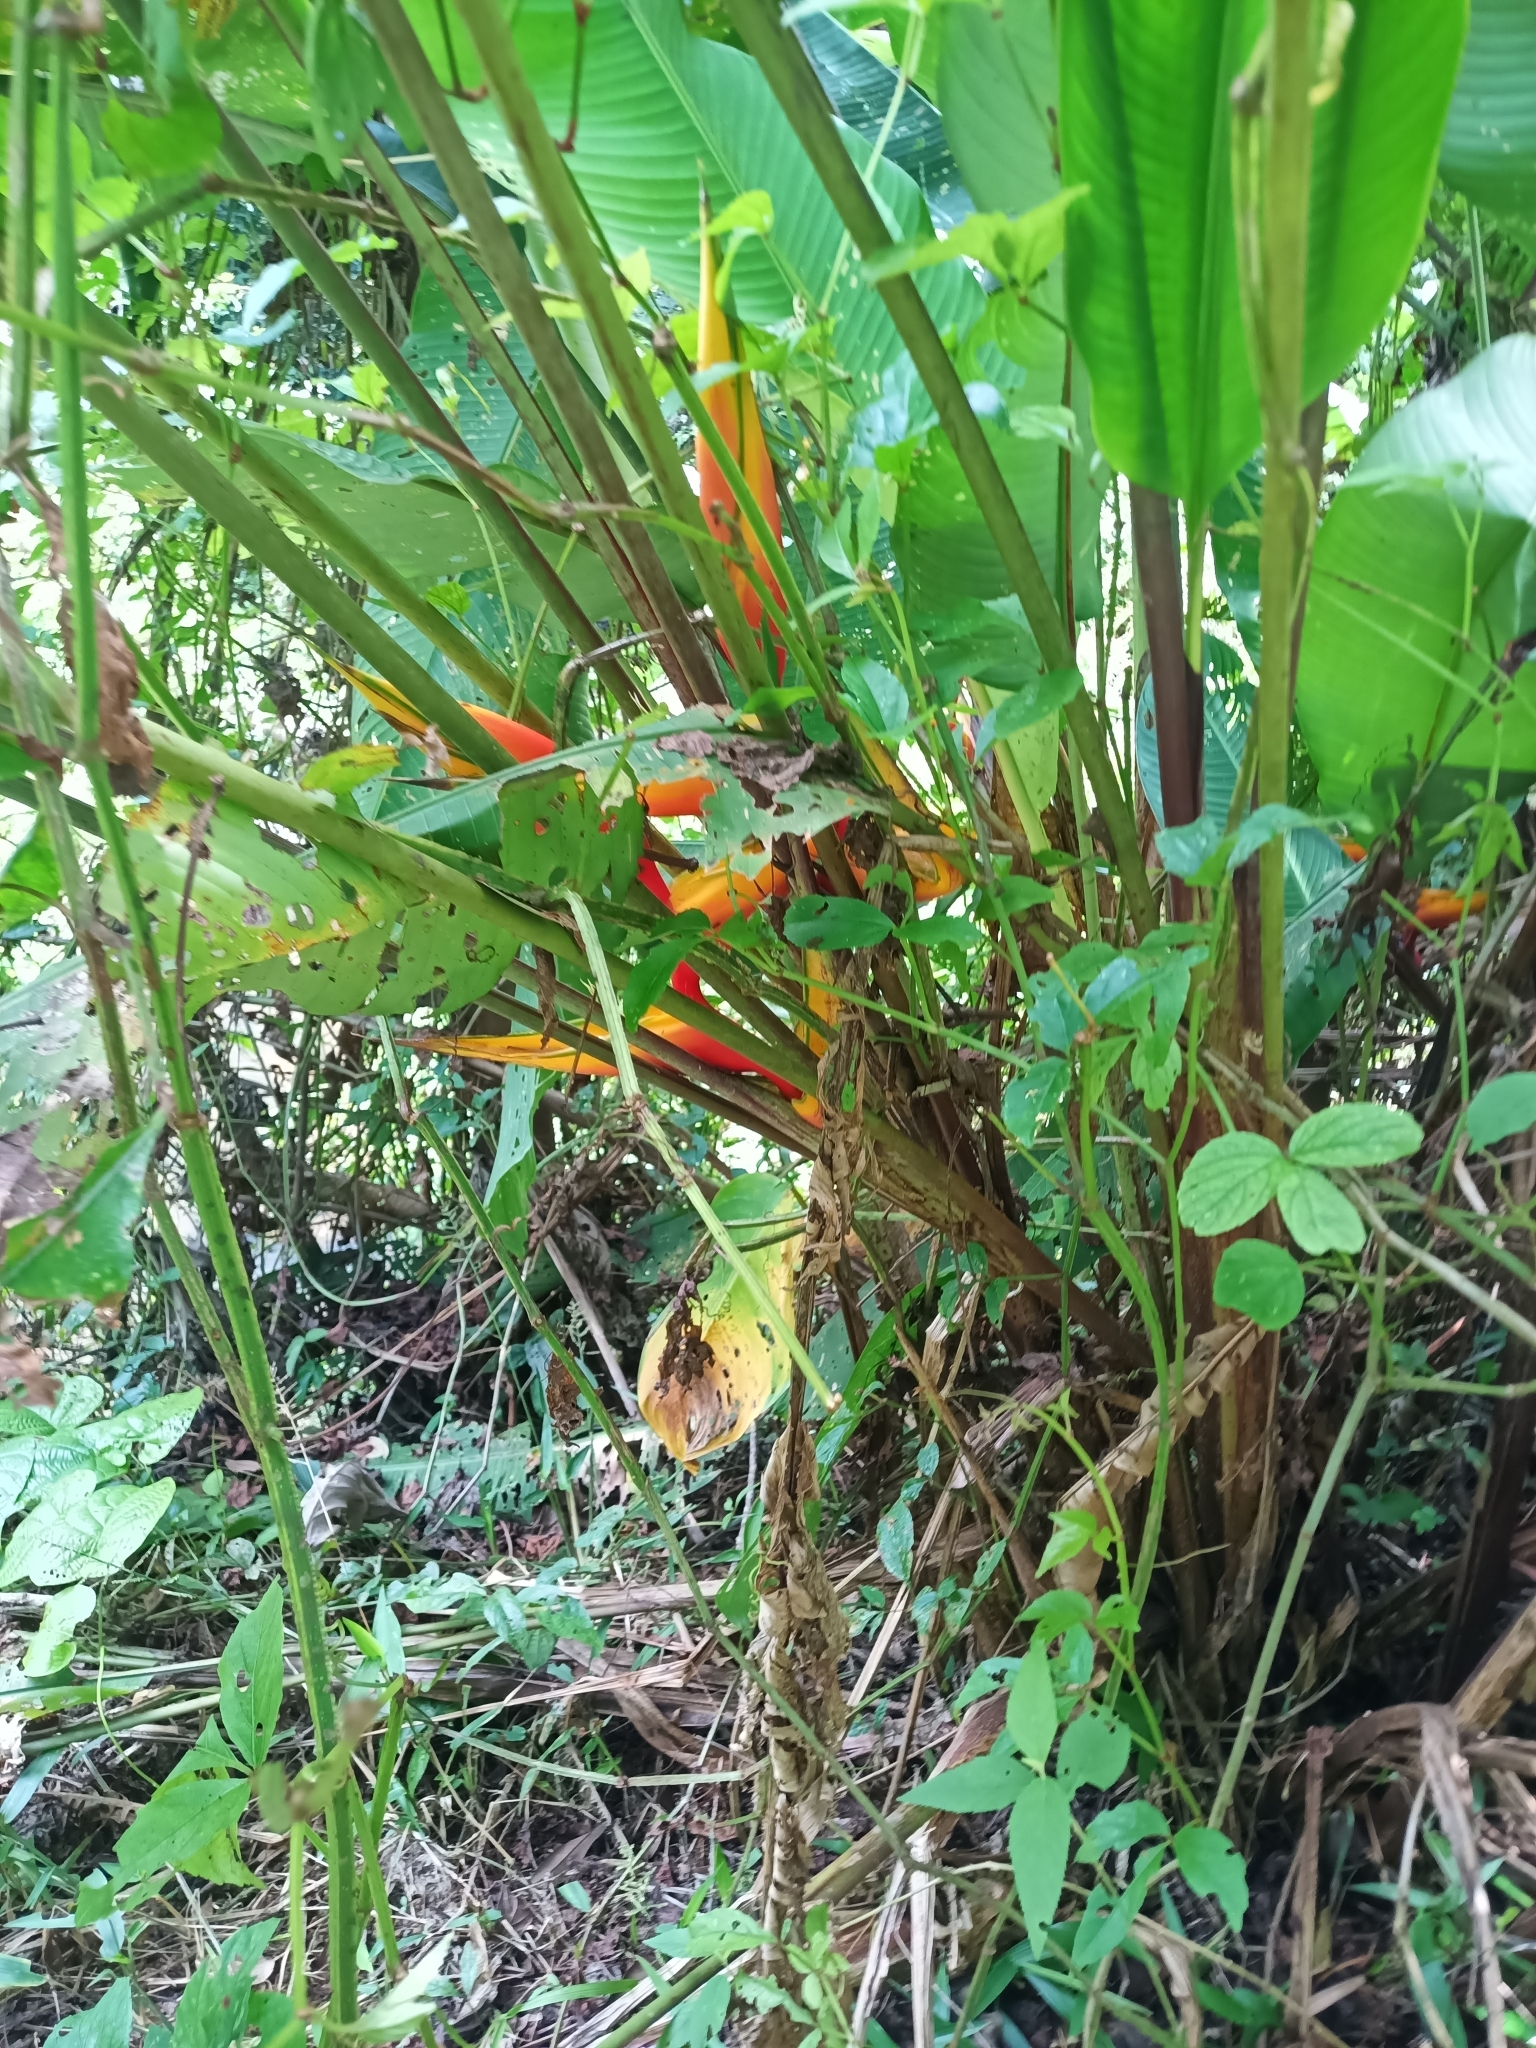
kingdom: Plantae
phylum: Tracheophyta
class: Liliopsida
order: Zingiberales
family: Heliconiaceae
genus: Heliconia
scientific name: Heliconia bihai
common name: Macaw flower
